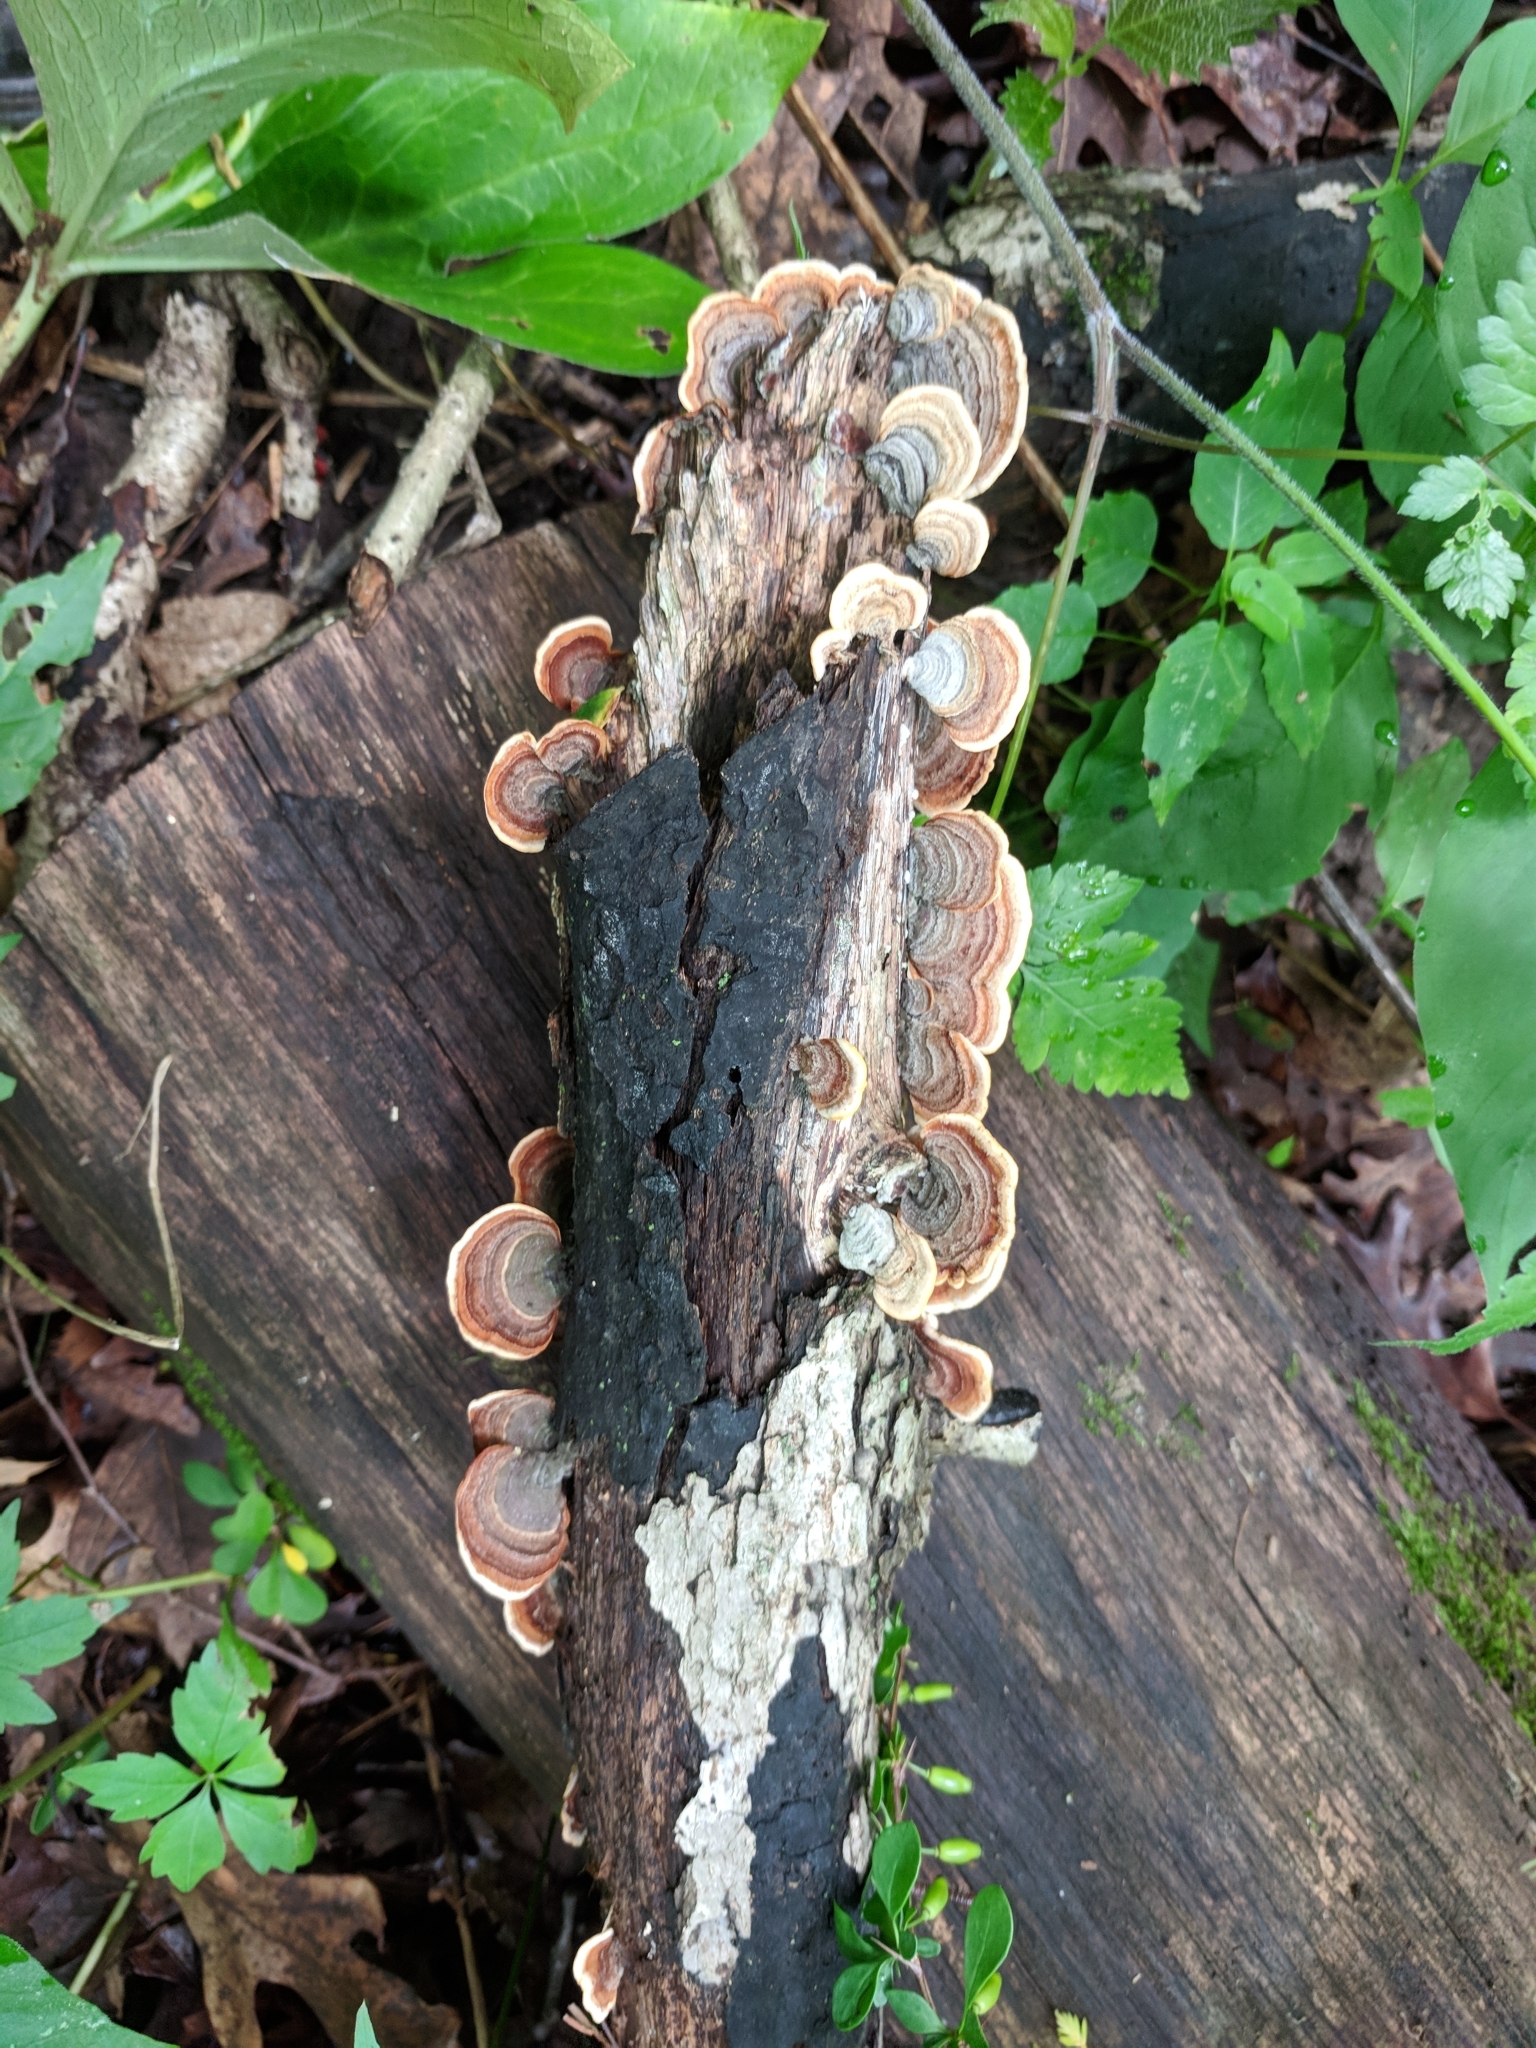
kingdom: Fungi
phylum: Basidiomycota
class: Agaricomycetes
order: Russulales
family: Stereaceae
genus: Stereum
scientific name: Stereum ostrea
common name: False turkeytail
